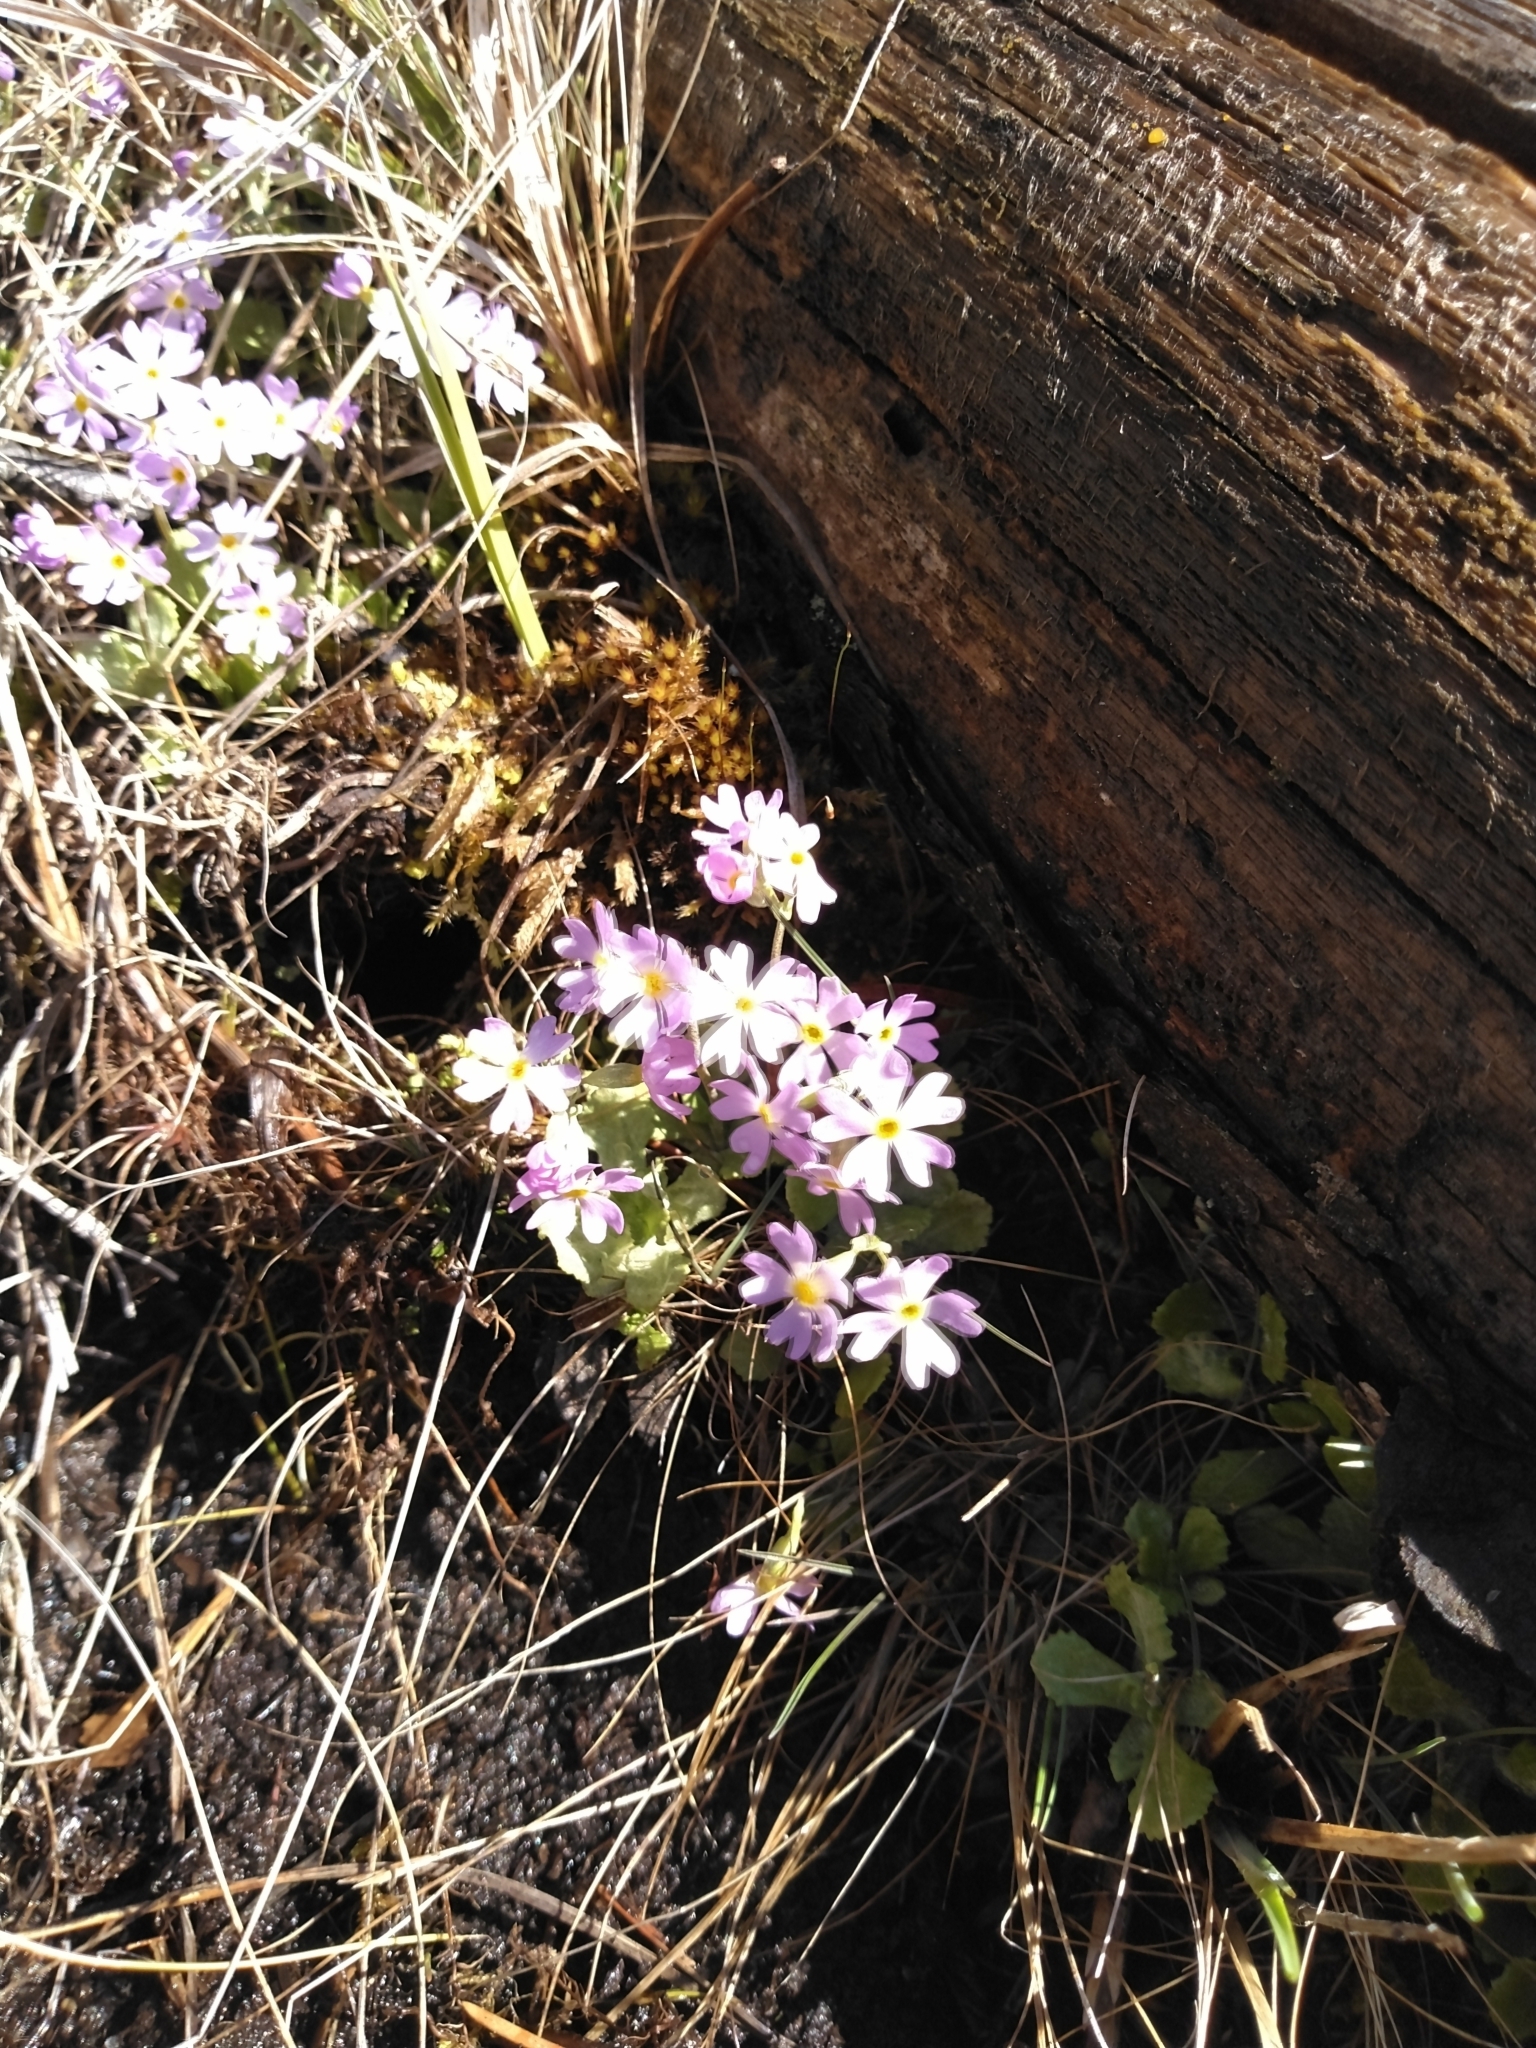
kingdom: Plantae
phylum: Tracheophyta
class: Magnoliopsida
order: Ericales
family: Primulaceae
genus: Primula
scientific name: Primula mistassinica
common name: Bird's-eye primrose
